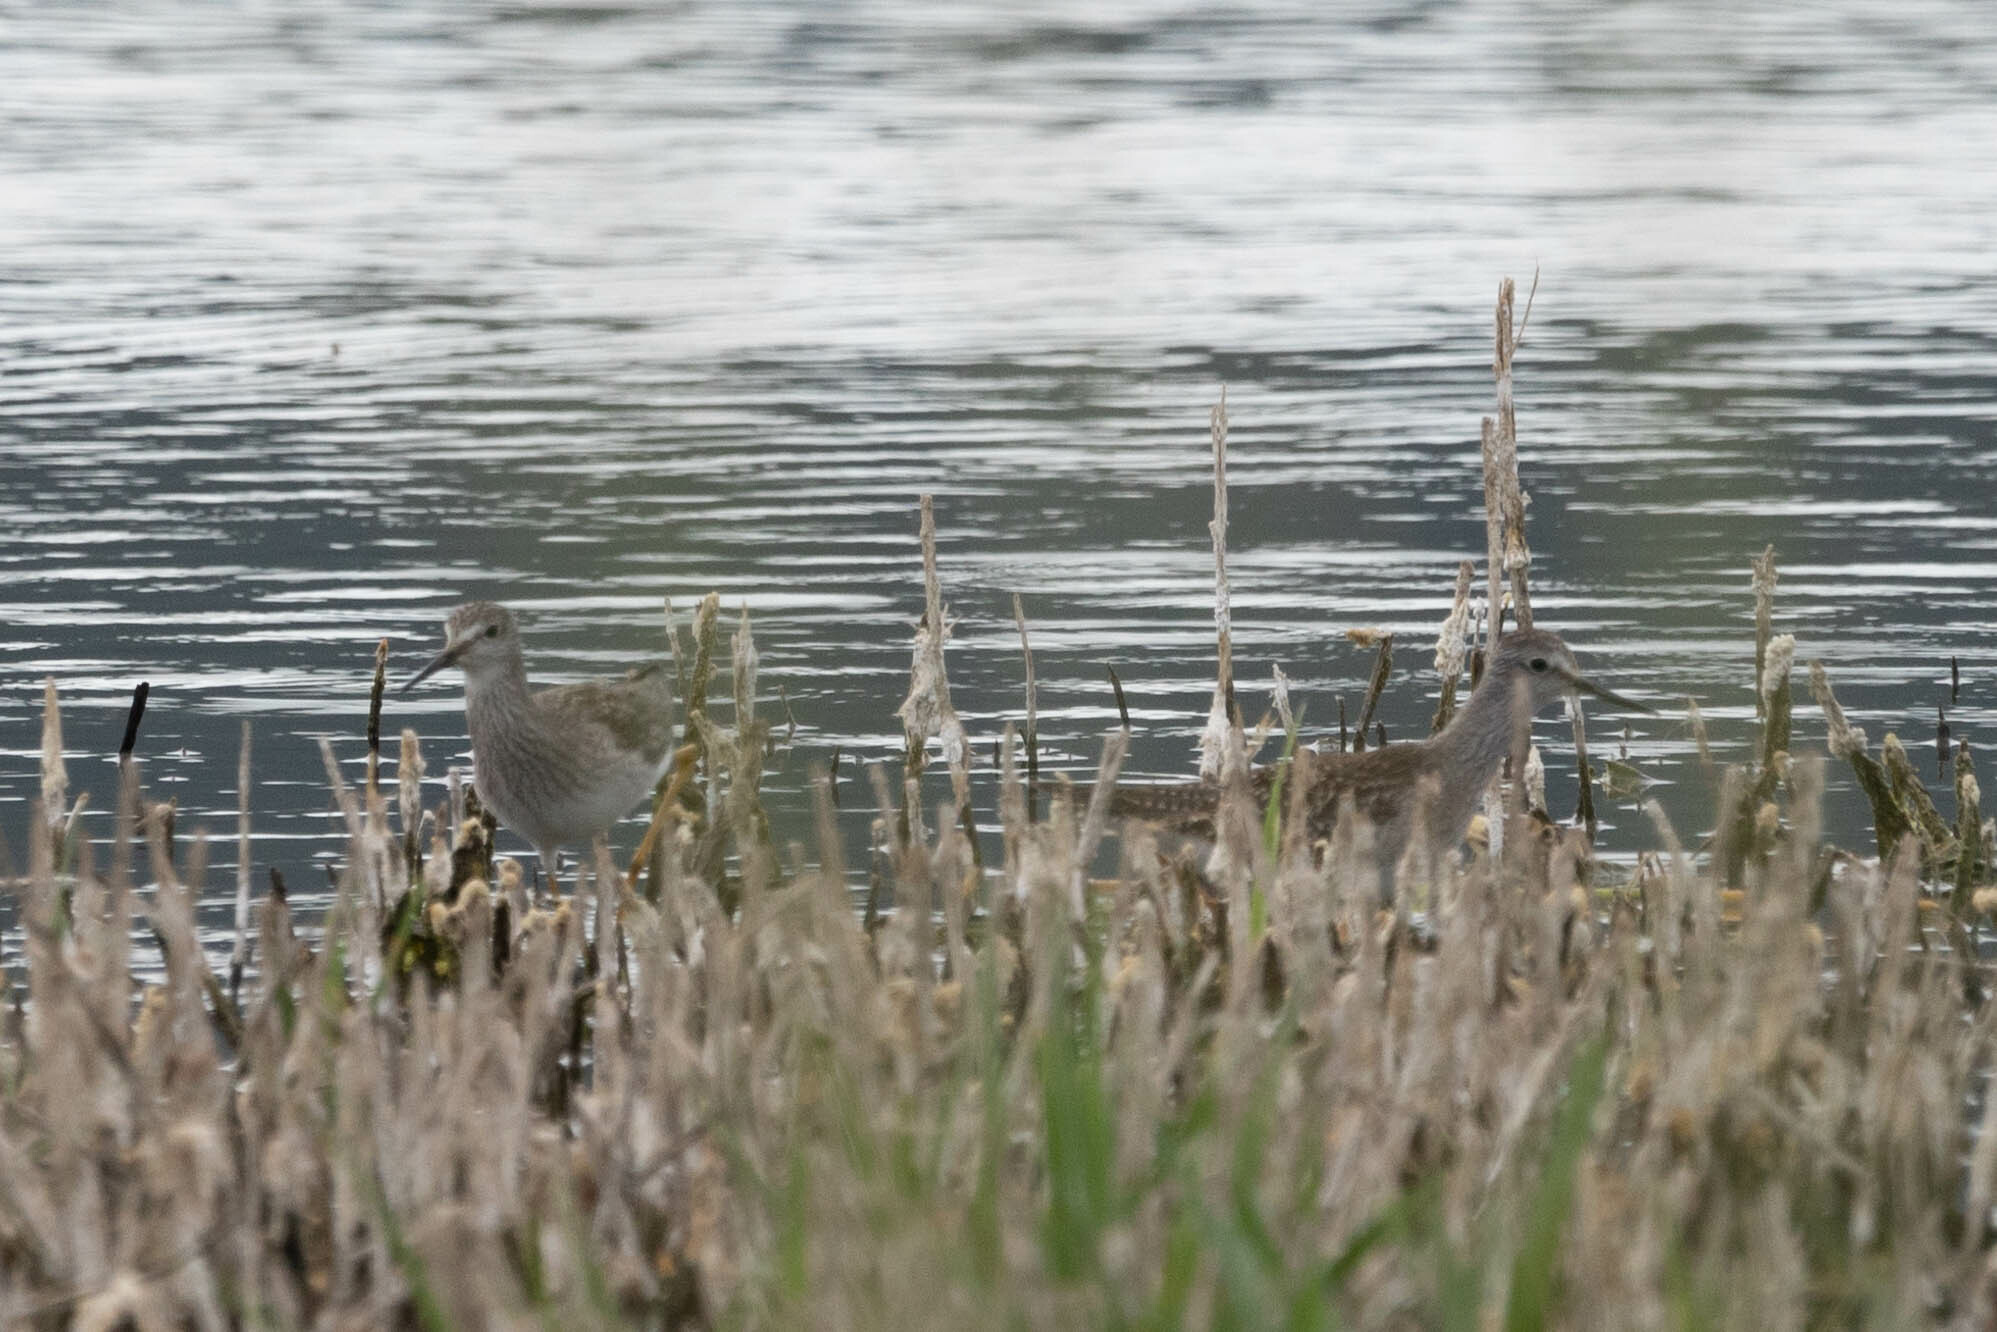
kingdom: Animalia
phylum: Chordata
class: Aves
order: Charadriiformes
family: Scolopacidae
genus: Tringa
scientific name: Tringa flavipes
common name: Lesser yellowlegs
